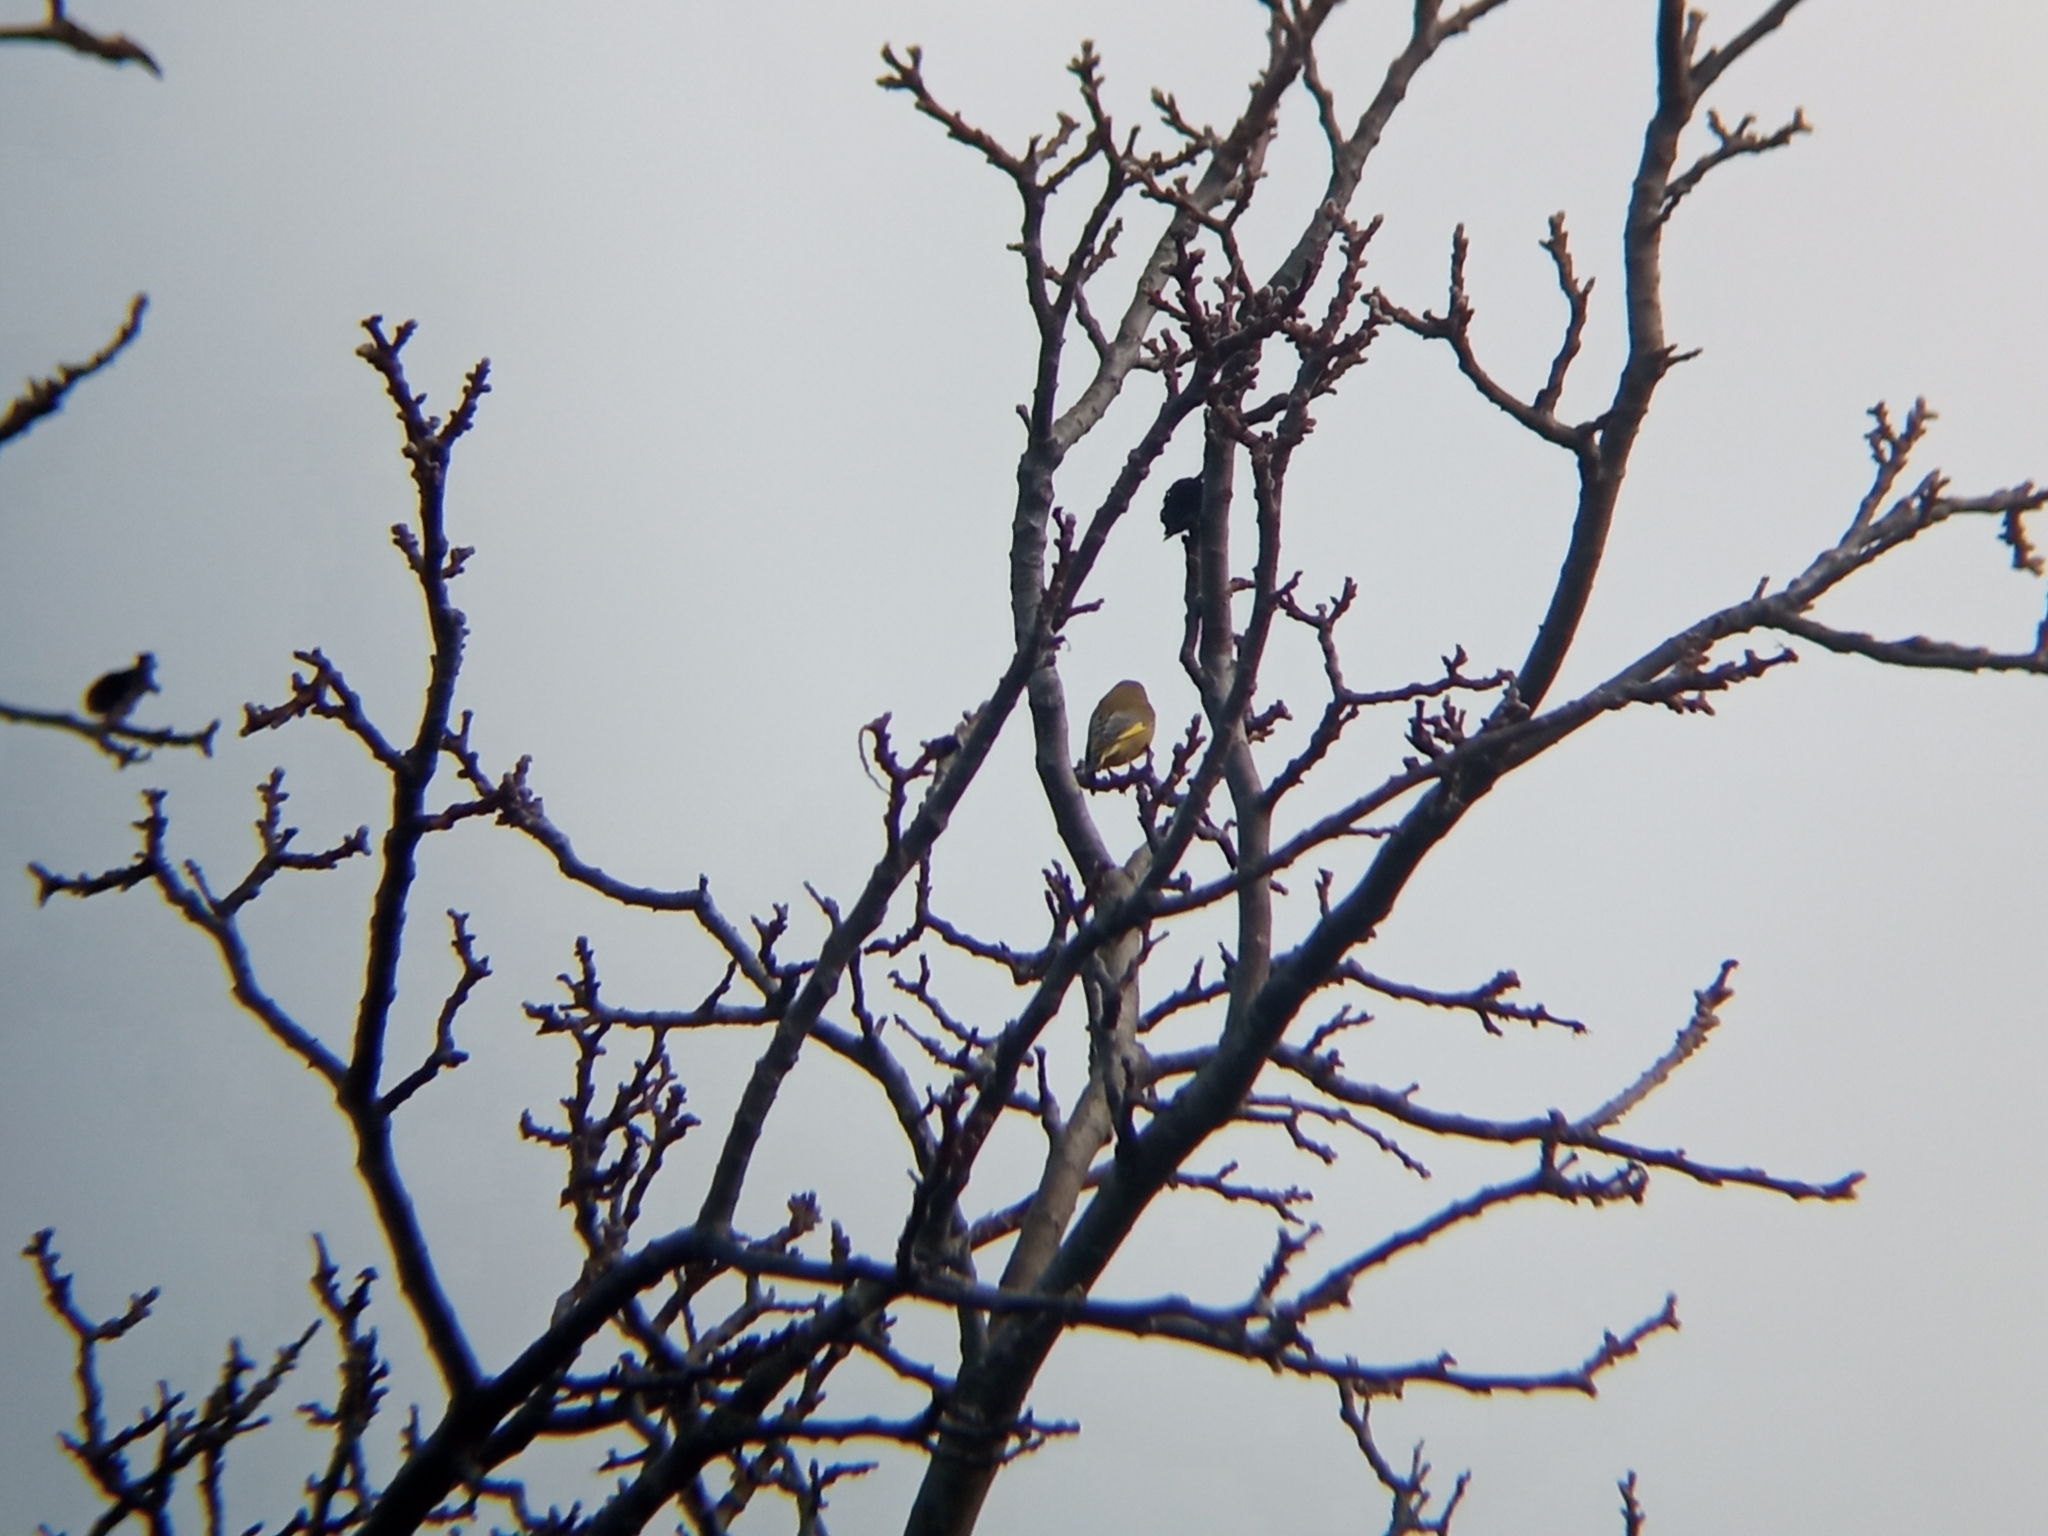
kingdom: Plantae
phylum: Tracheophyta
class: Liliopsida
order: Poales
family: Poaceae
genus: Chloris
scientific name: Chloris chloris
